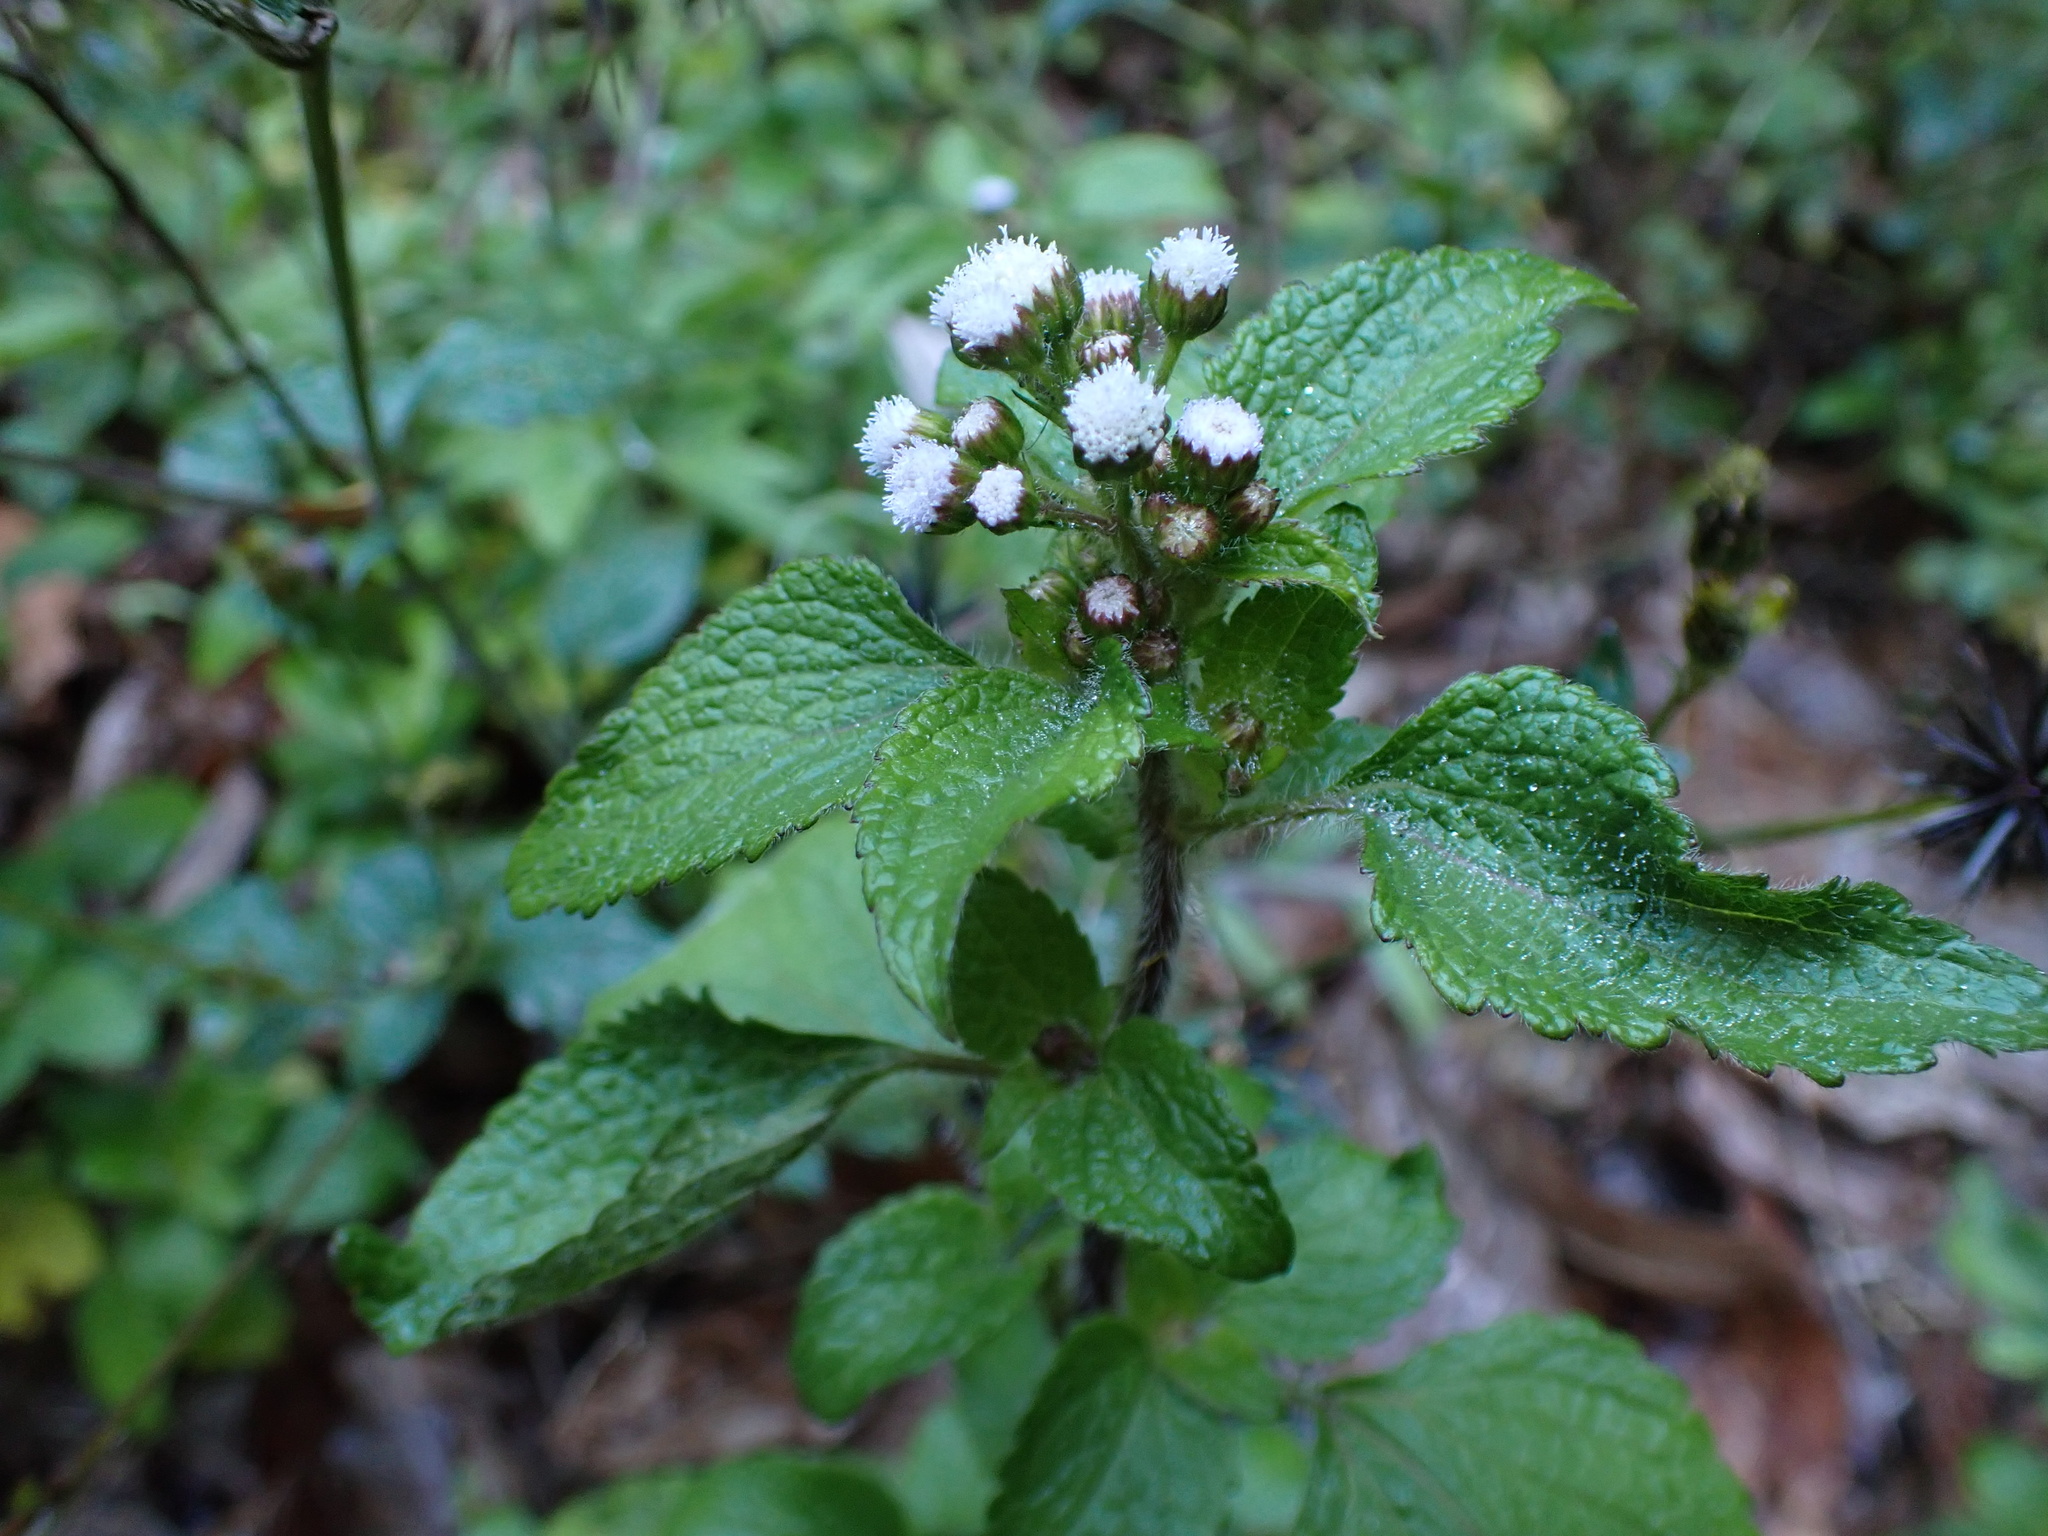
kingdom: Plantae
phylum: Tracheophyta
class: Magnoliopsida
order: Asterales
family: Asteraceae
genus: Ageratum
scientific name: Ageratum conyzoides
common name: Tropical whiteweed
